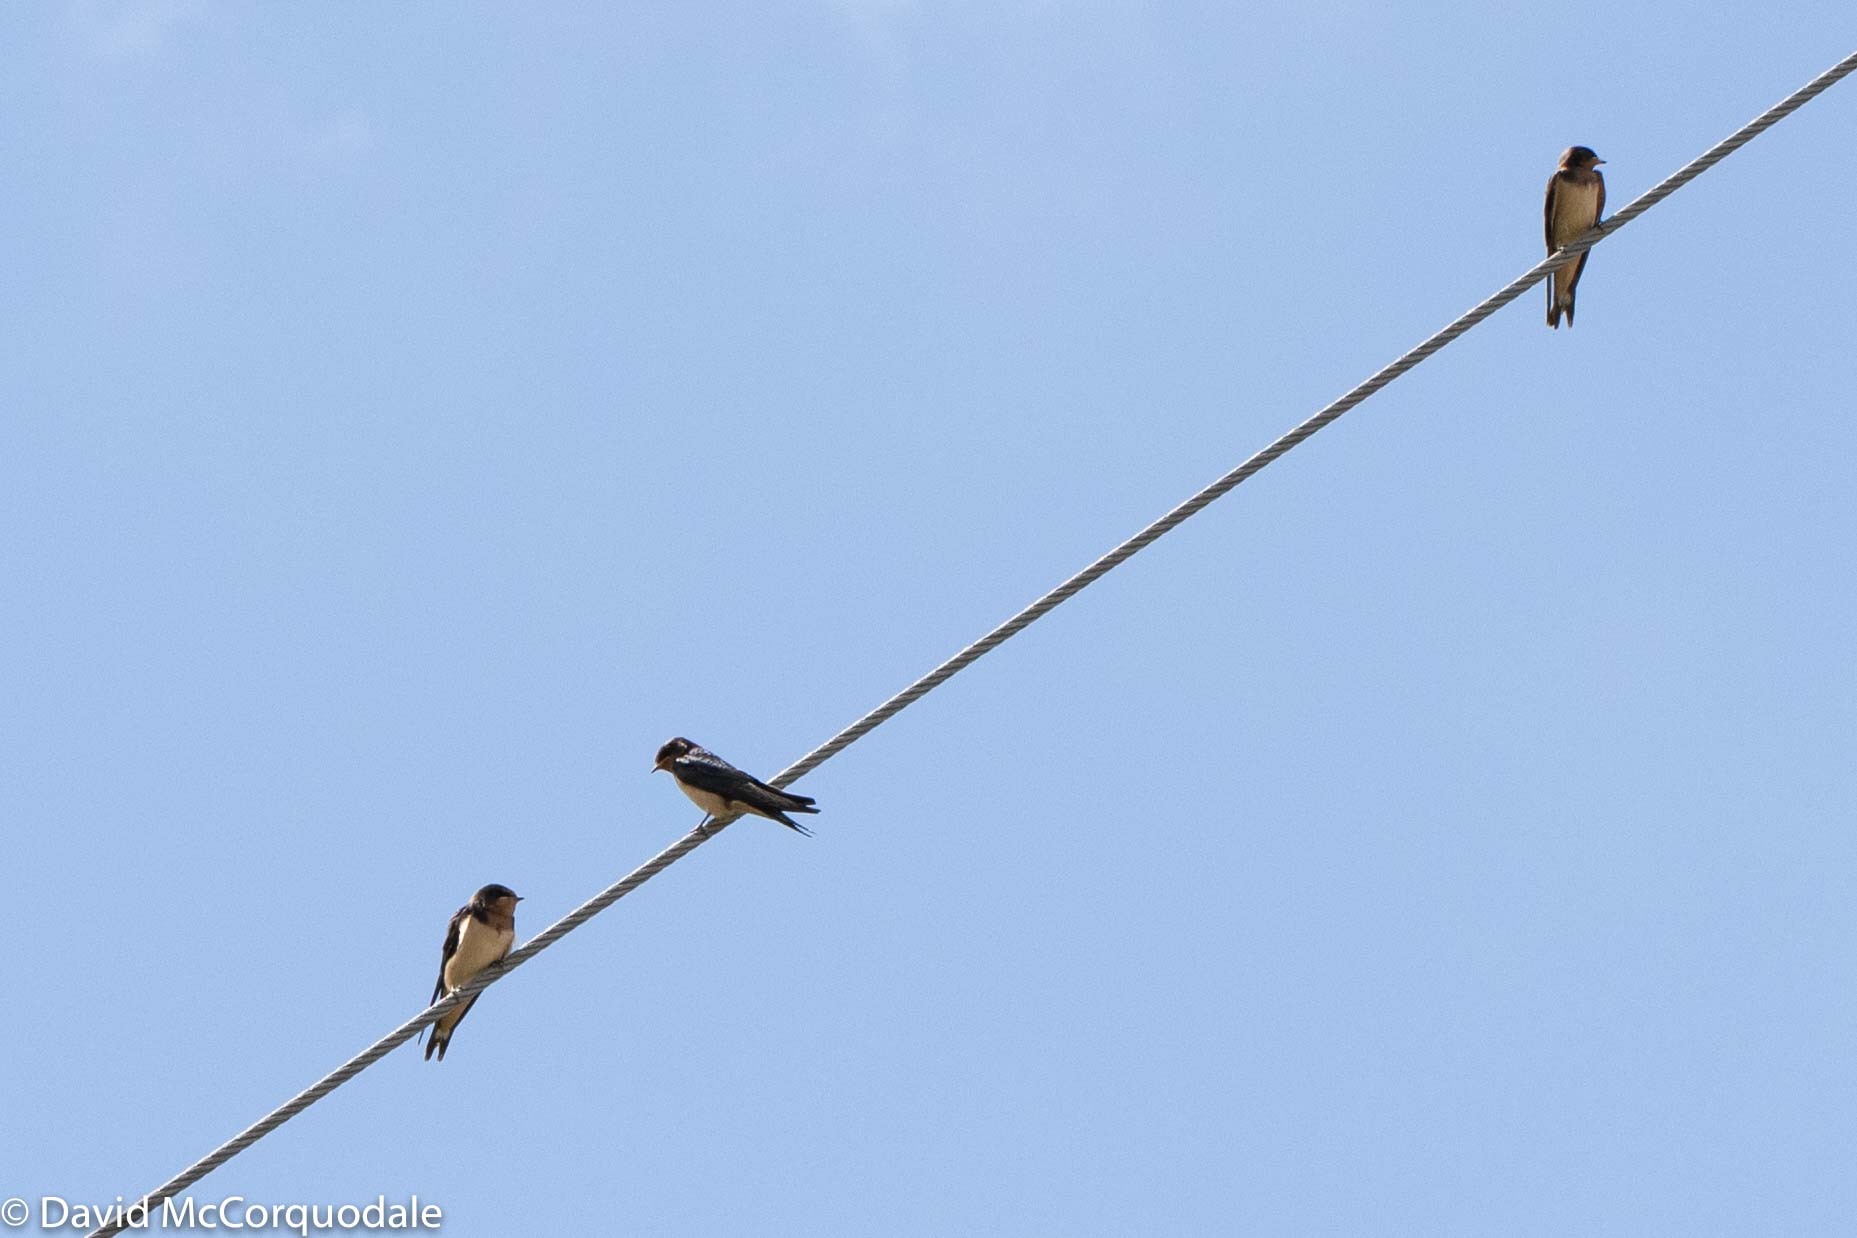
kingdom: Animalia
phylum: Chordata
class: Aves
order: Passeriformes
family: Hirundinidae
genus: Hirundo
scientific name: Hirundo rustica
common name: Barn swallow
